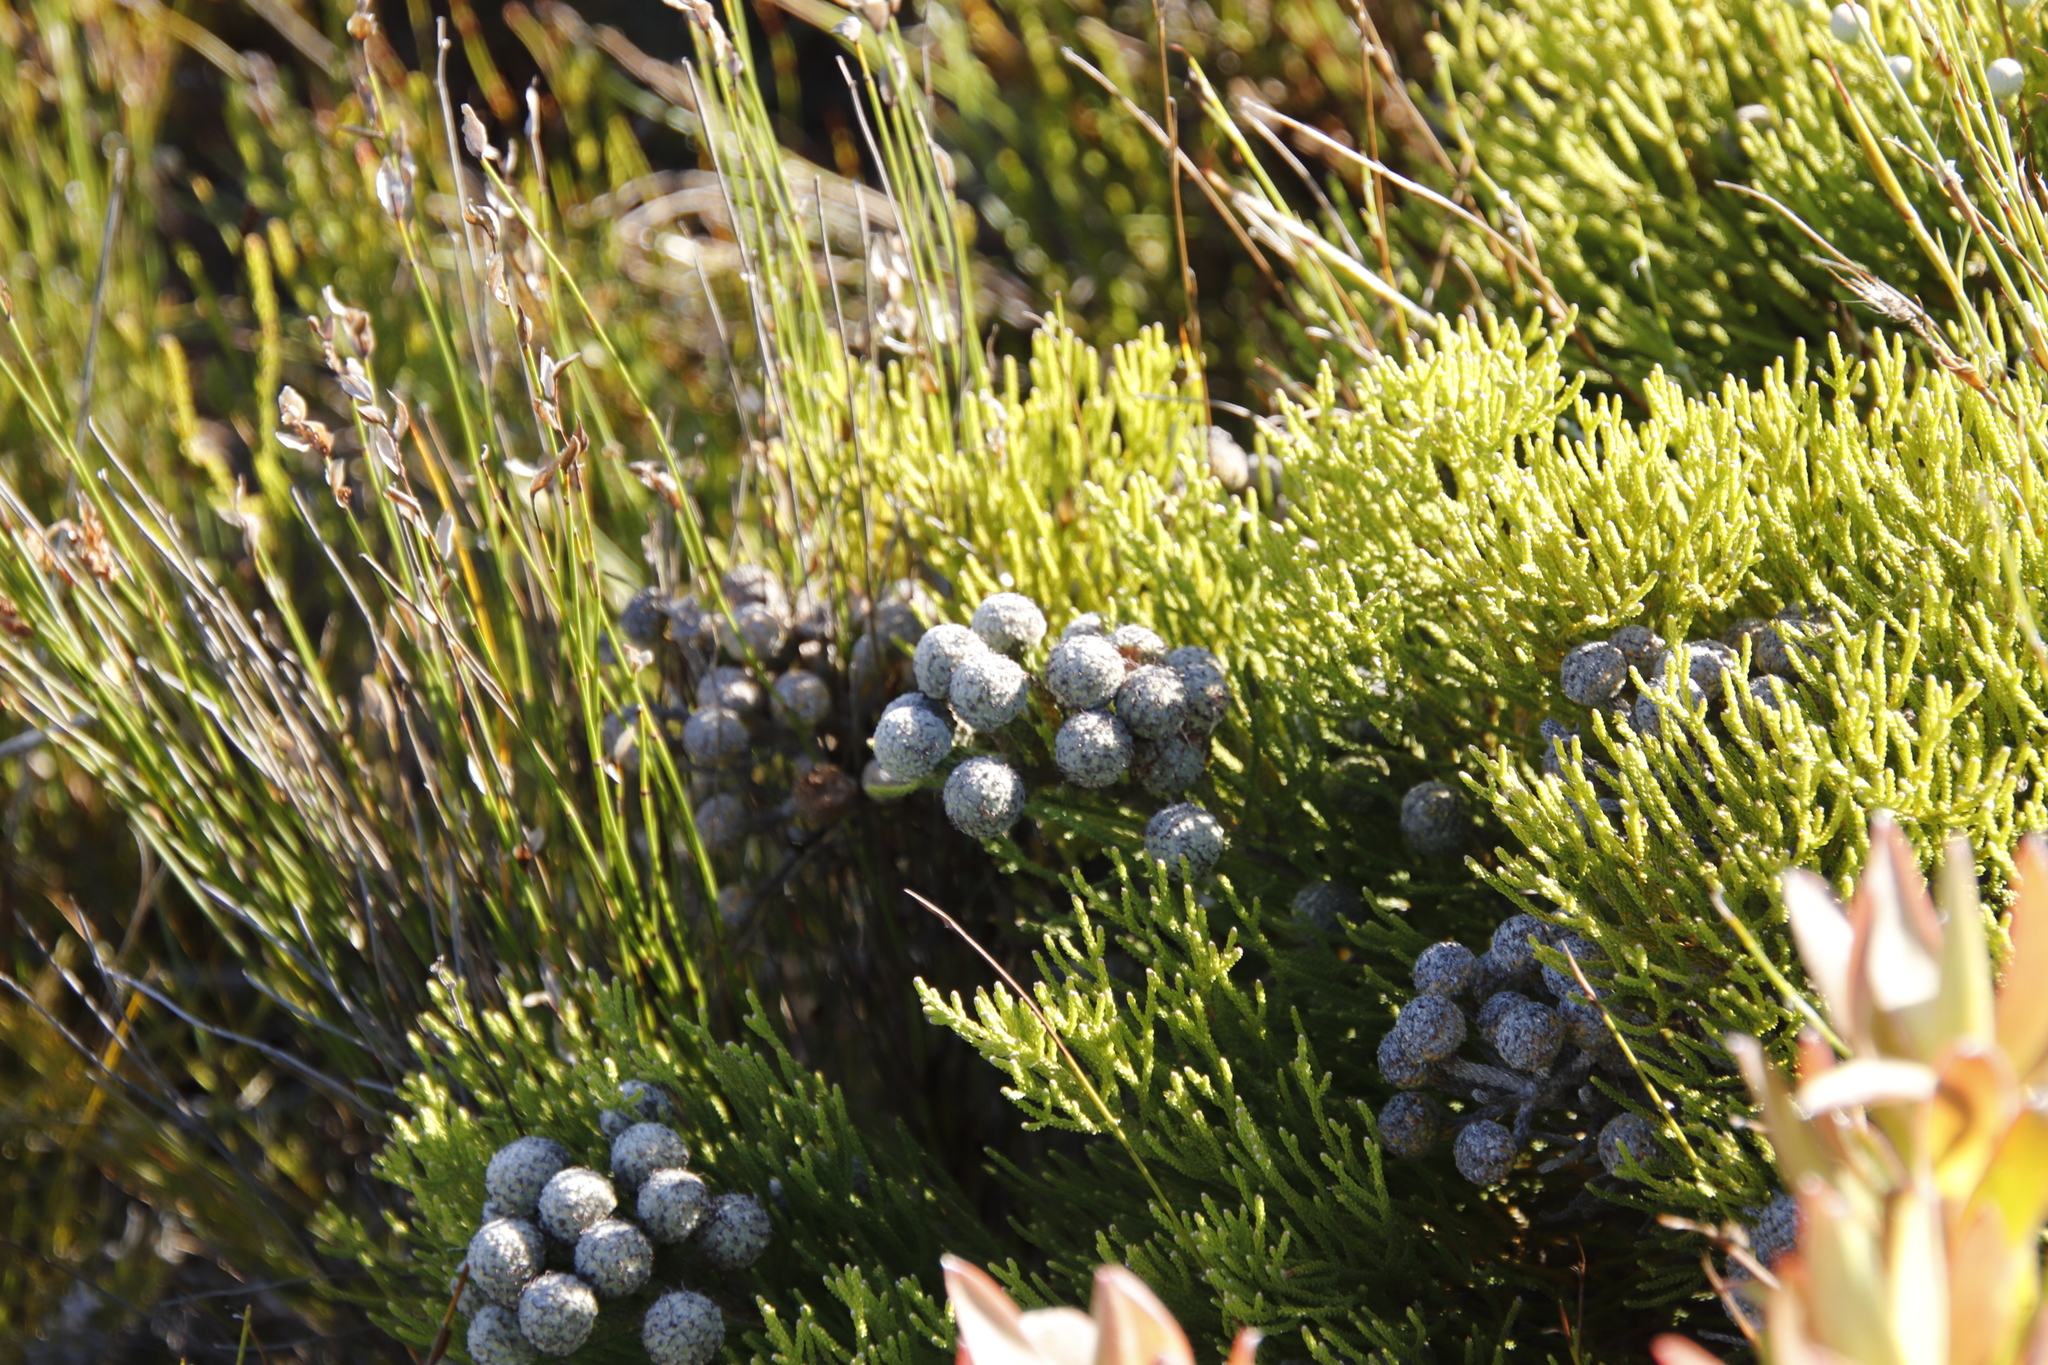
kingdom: Plantae
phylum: Tracheophyta
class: Magnoliopsida
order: Bruniales
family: Bruniaceae
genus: Brunia
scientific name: Brunia noduliflora
